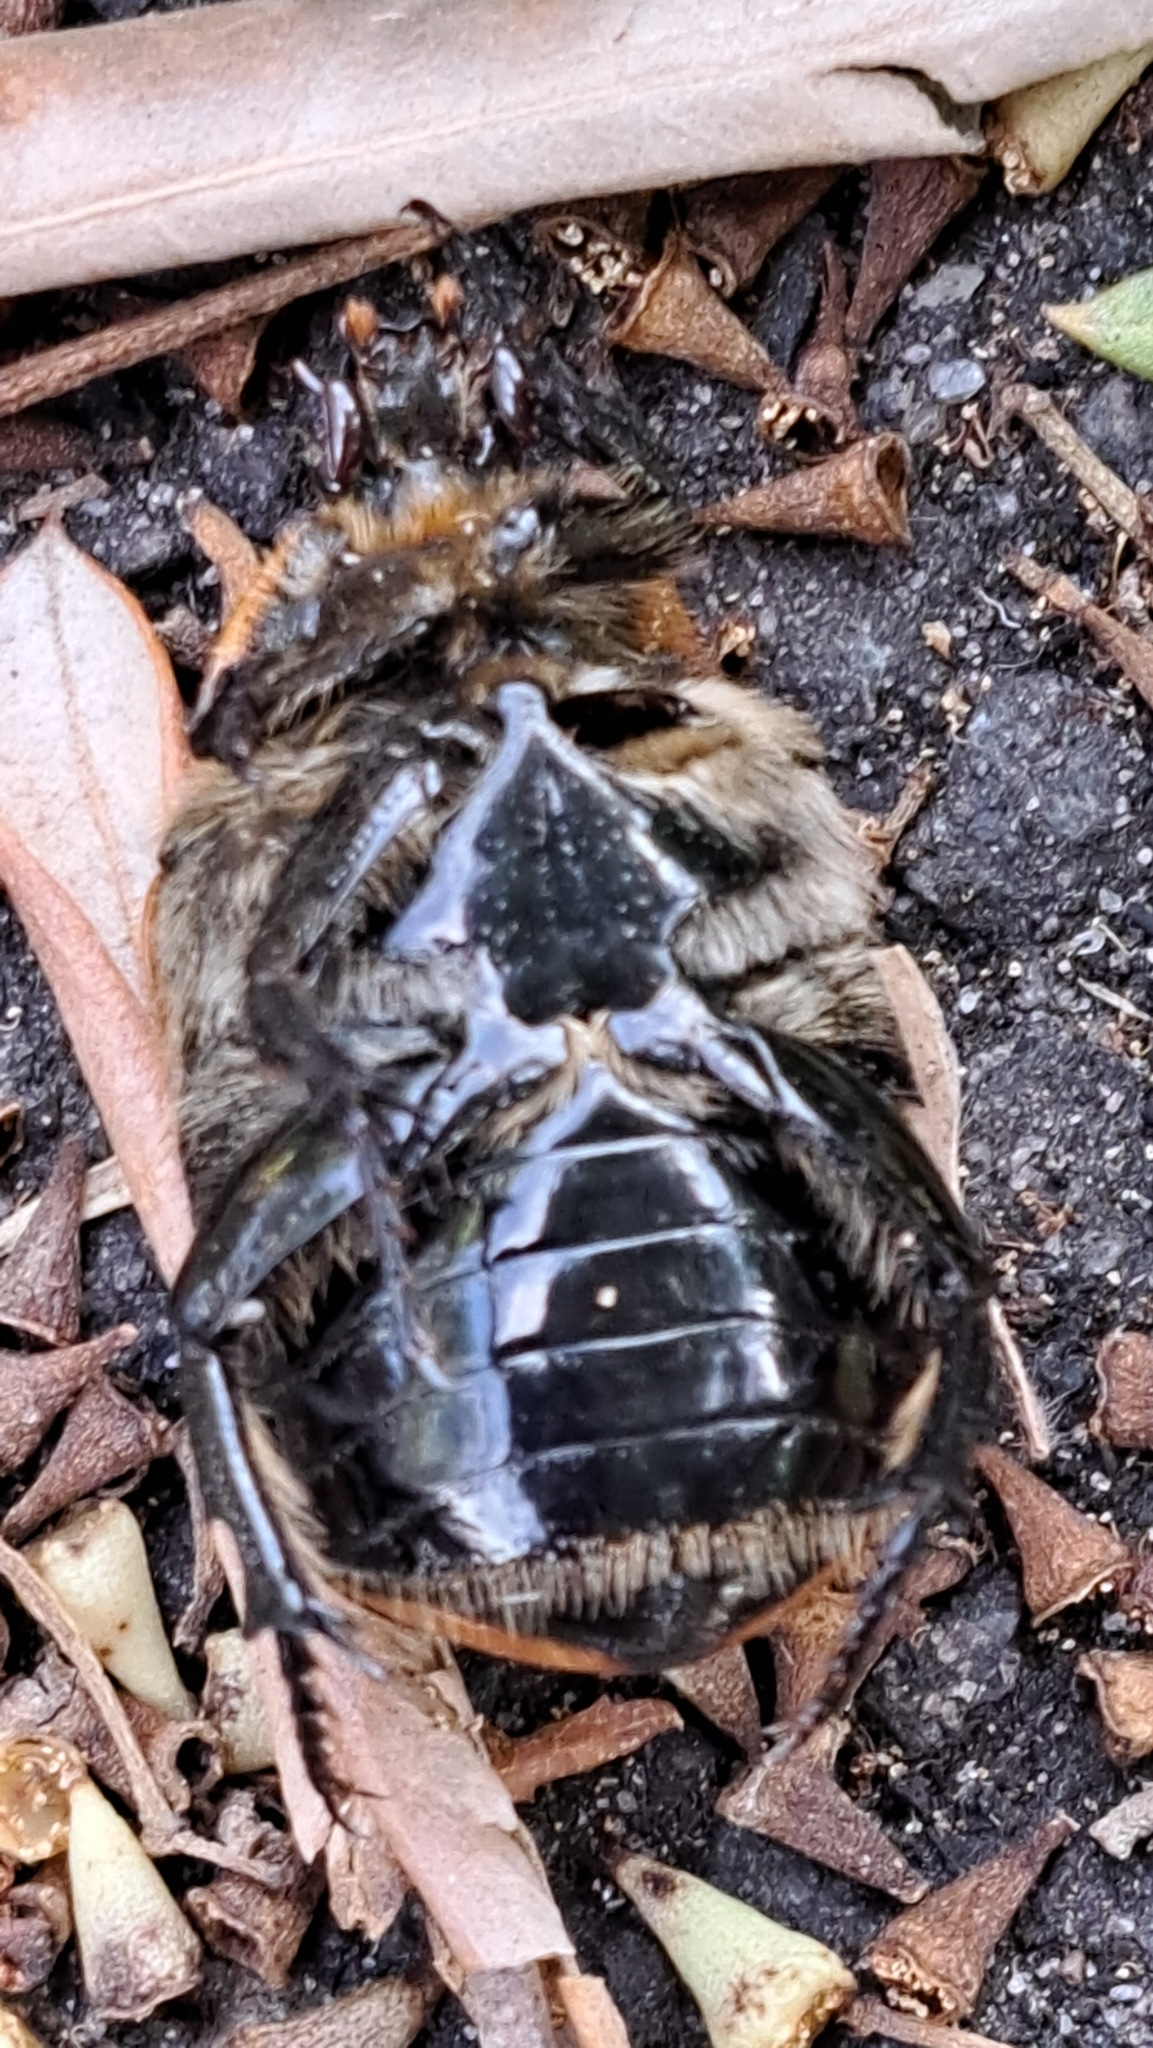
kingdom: Animalia
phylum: Arthropoda
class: Insecta
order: Coleoptera
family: Scarabaeidae
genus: Chondropyga
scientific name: Chondropyga dorsalis
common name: Cowboy beetle
